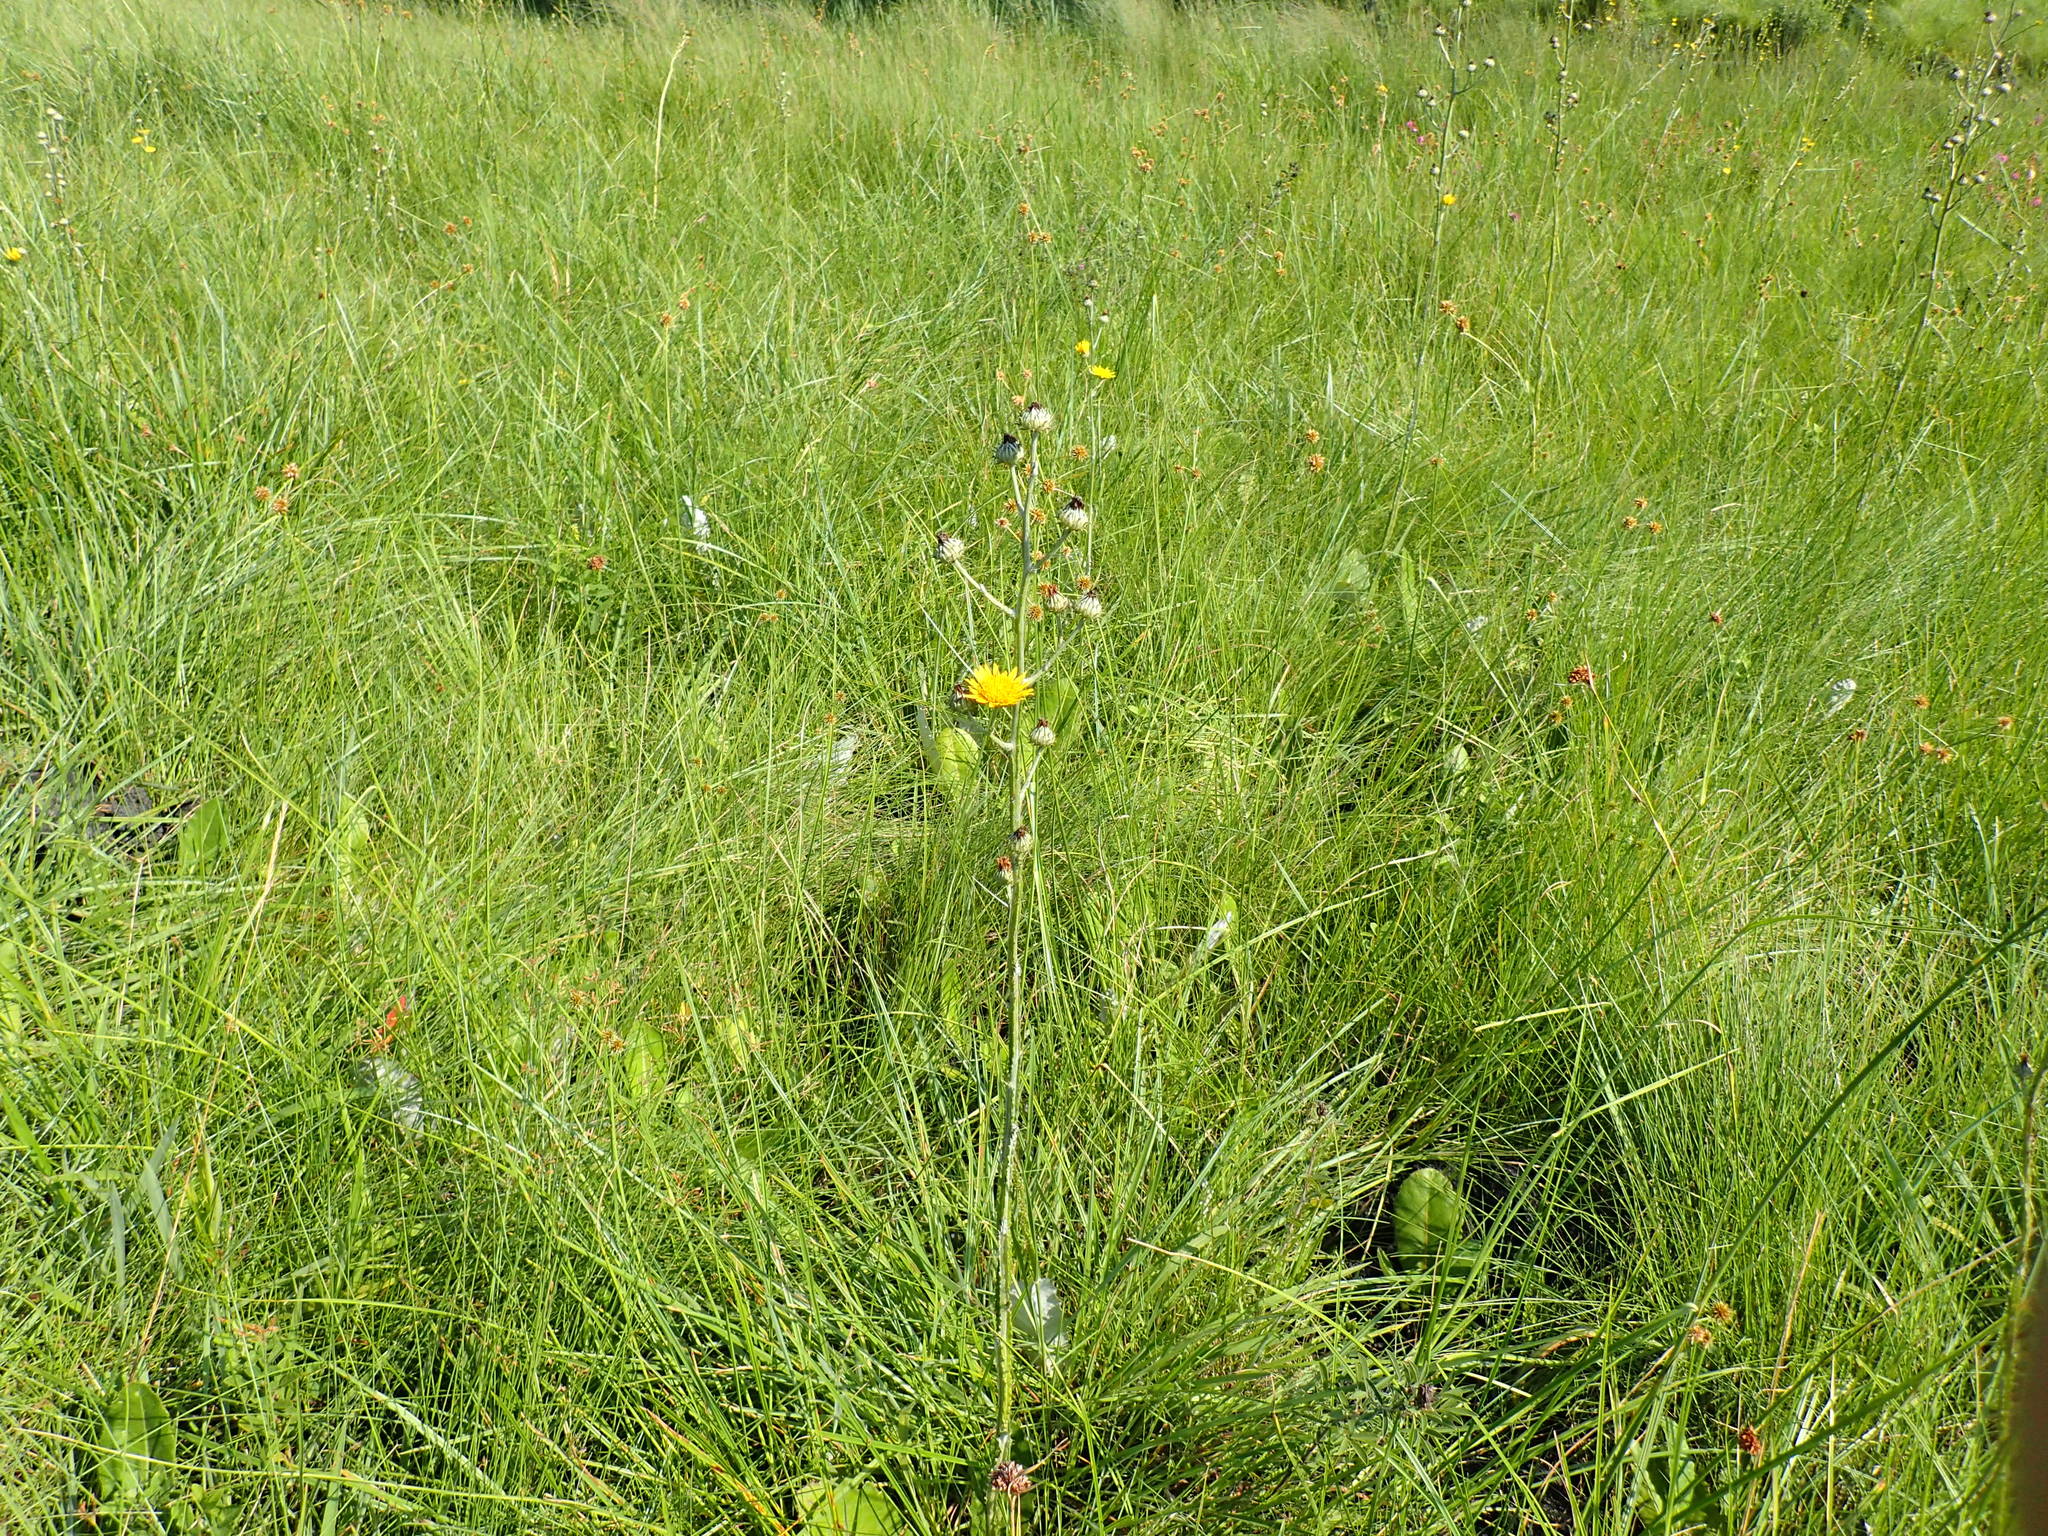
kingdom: Plantae
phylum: Tracheophyta
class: Magnoliopsida
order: Asterales
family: Asteraceae
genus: Berkheya
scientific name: Berkheya rhapontica
